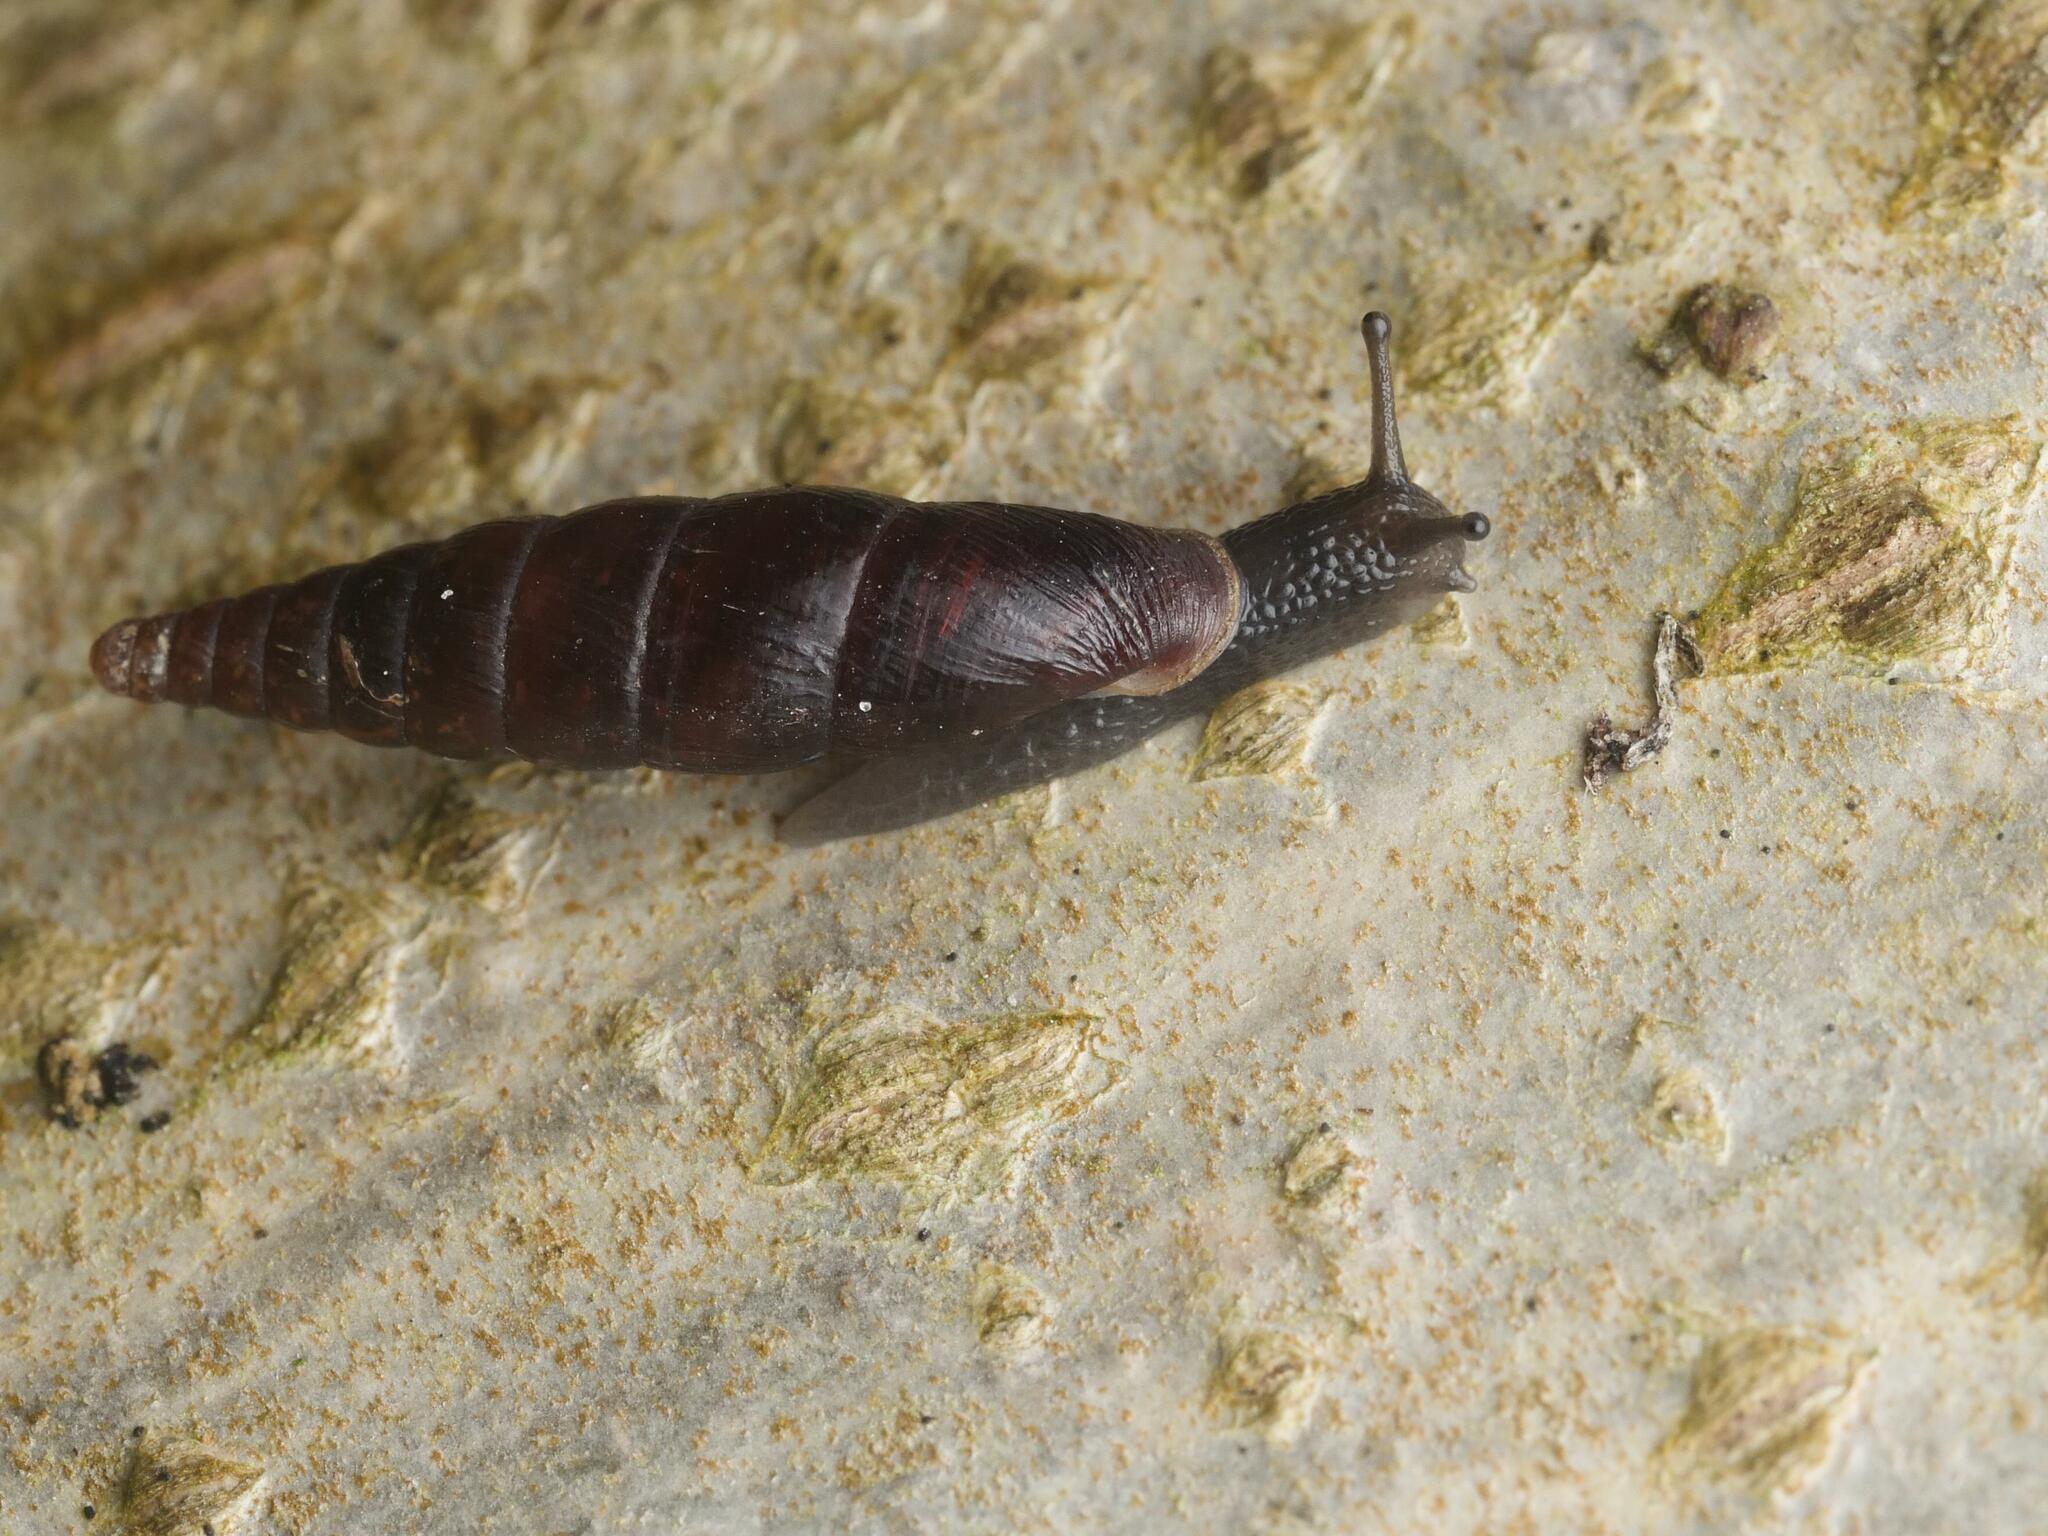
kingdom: Animalia
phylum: Mollusca
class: Gastropoda
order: Stylommatophora
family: Clausiliidae
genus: Cochlodina
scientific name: Cochlodina laminata
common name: Plaited door snail
